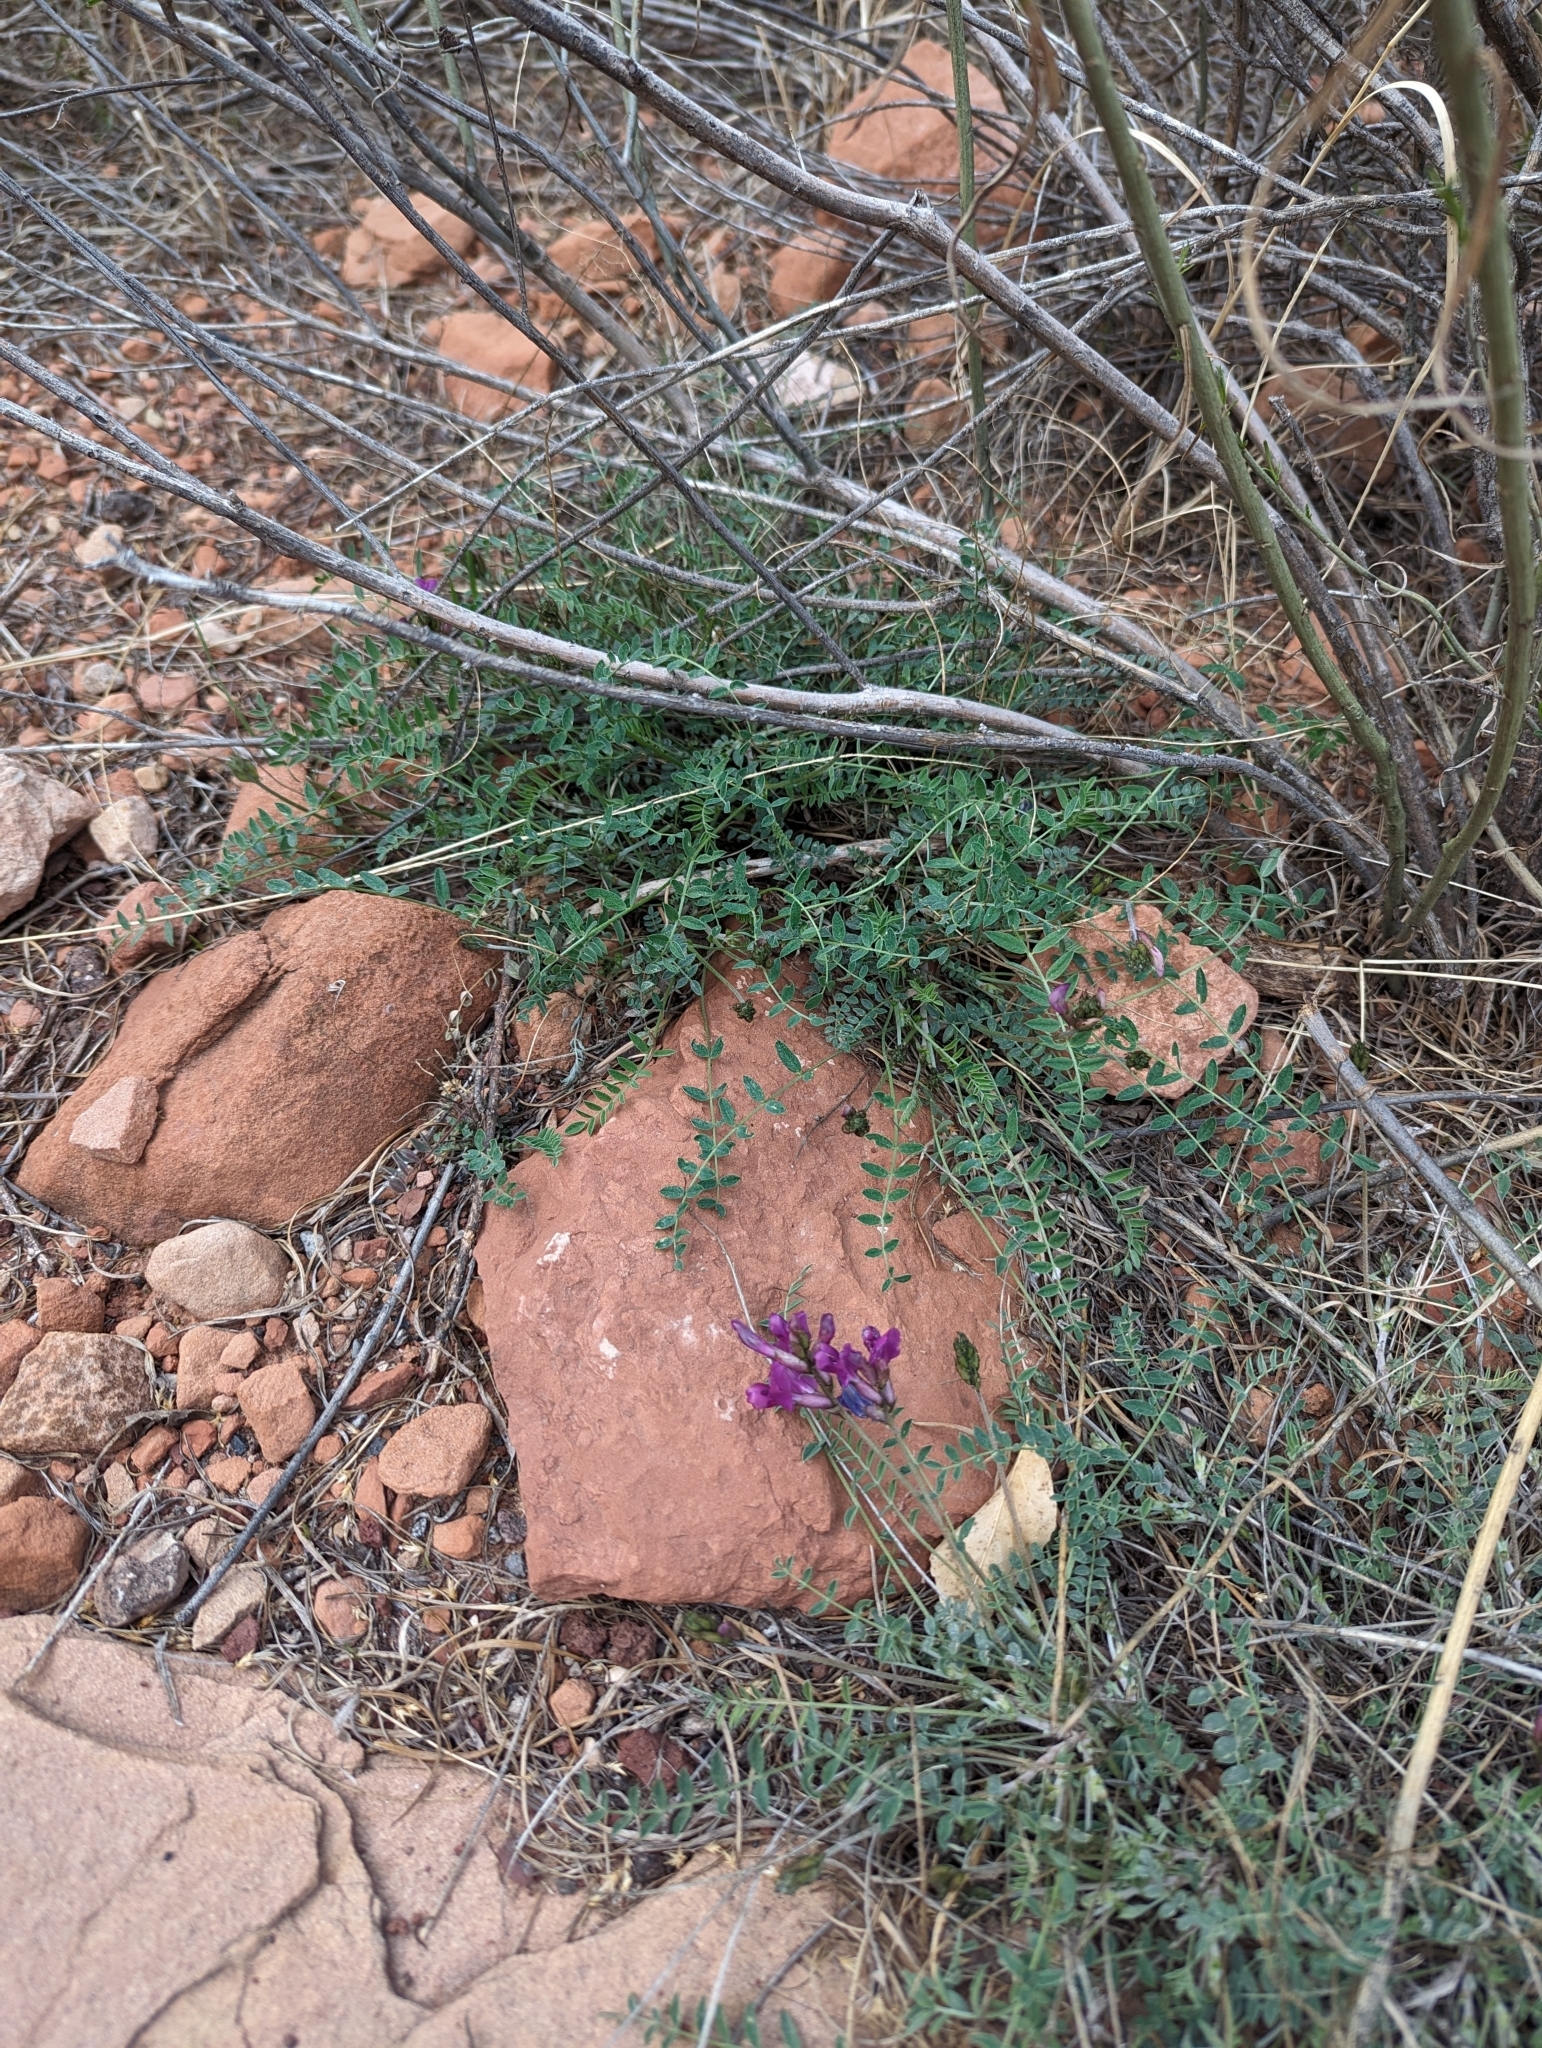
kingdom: Plantae
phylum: Tracheophyta
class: Magnoliopsida
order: Fabales
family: Fabaceae
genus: Astragalus
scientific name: Astragalus zionis
